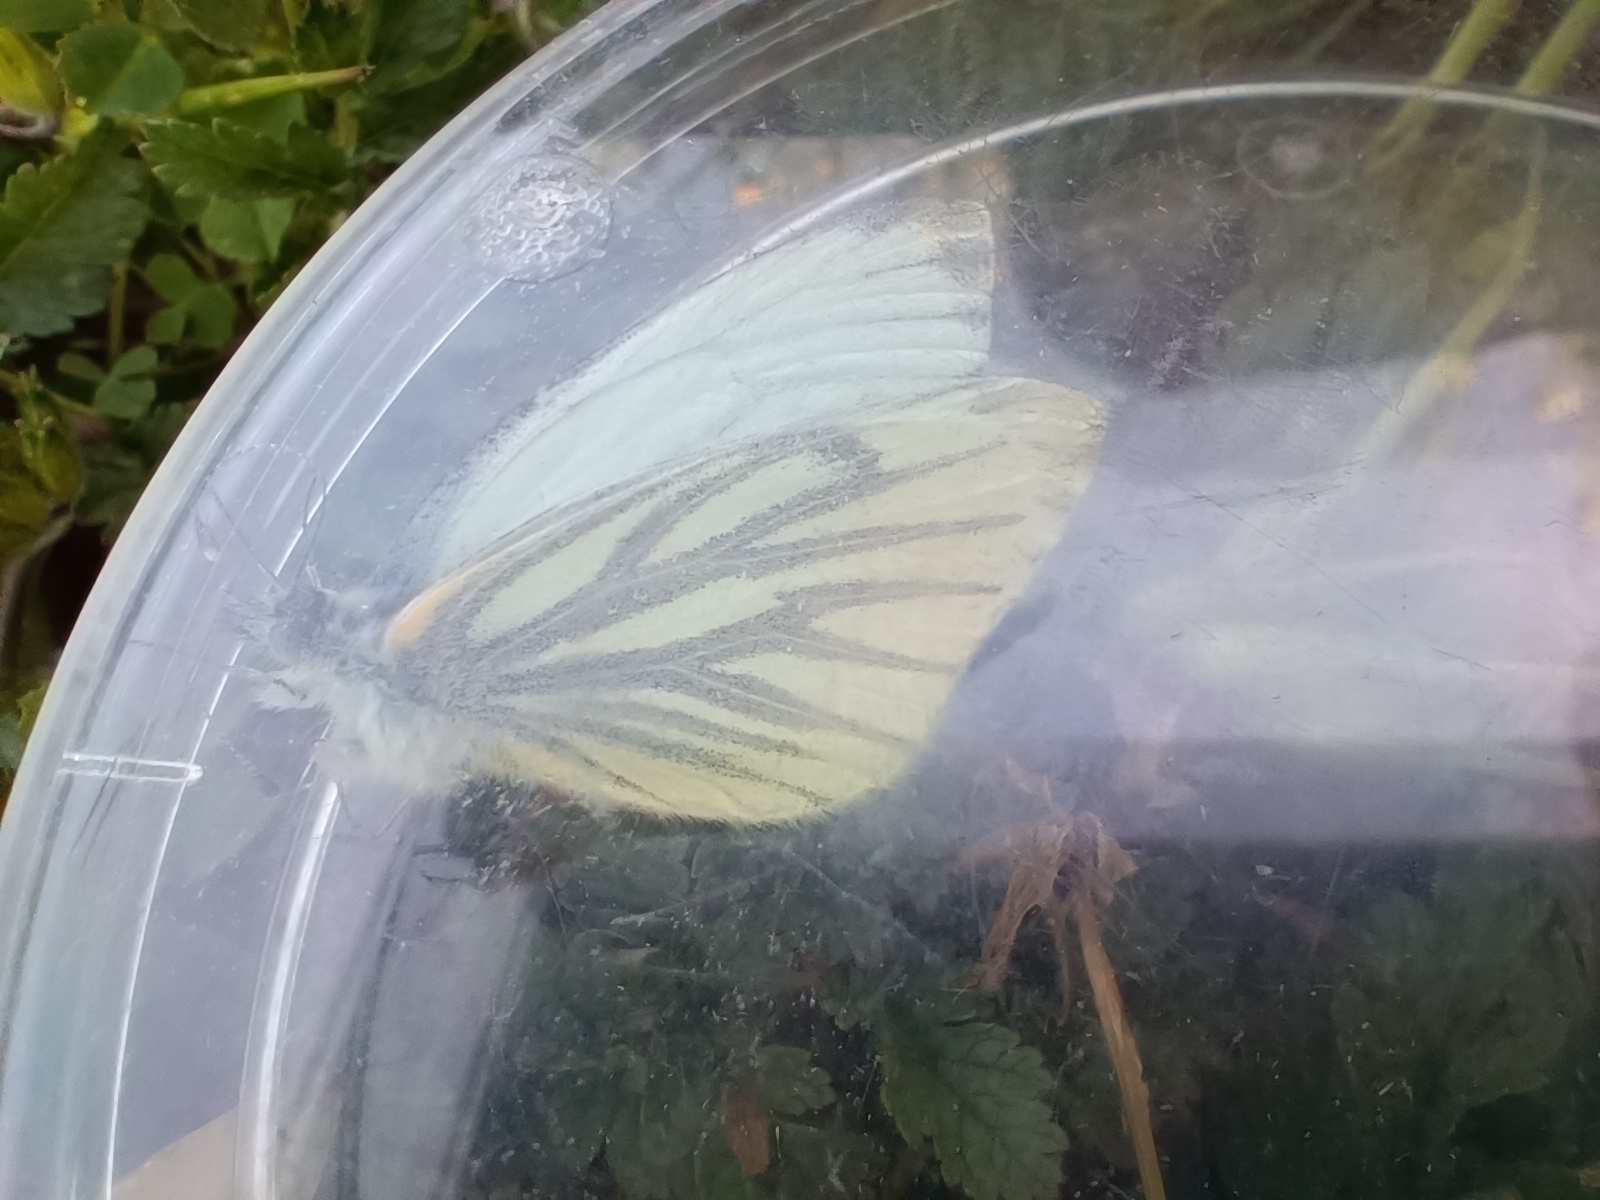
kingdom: Animalia
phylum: Arthropoda
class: Insecta
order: Lepidoptera
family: Pieridae
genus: Pieris
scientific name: Pieris napi
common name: Green-veined white
